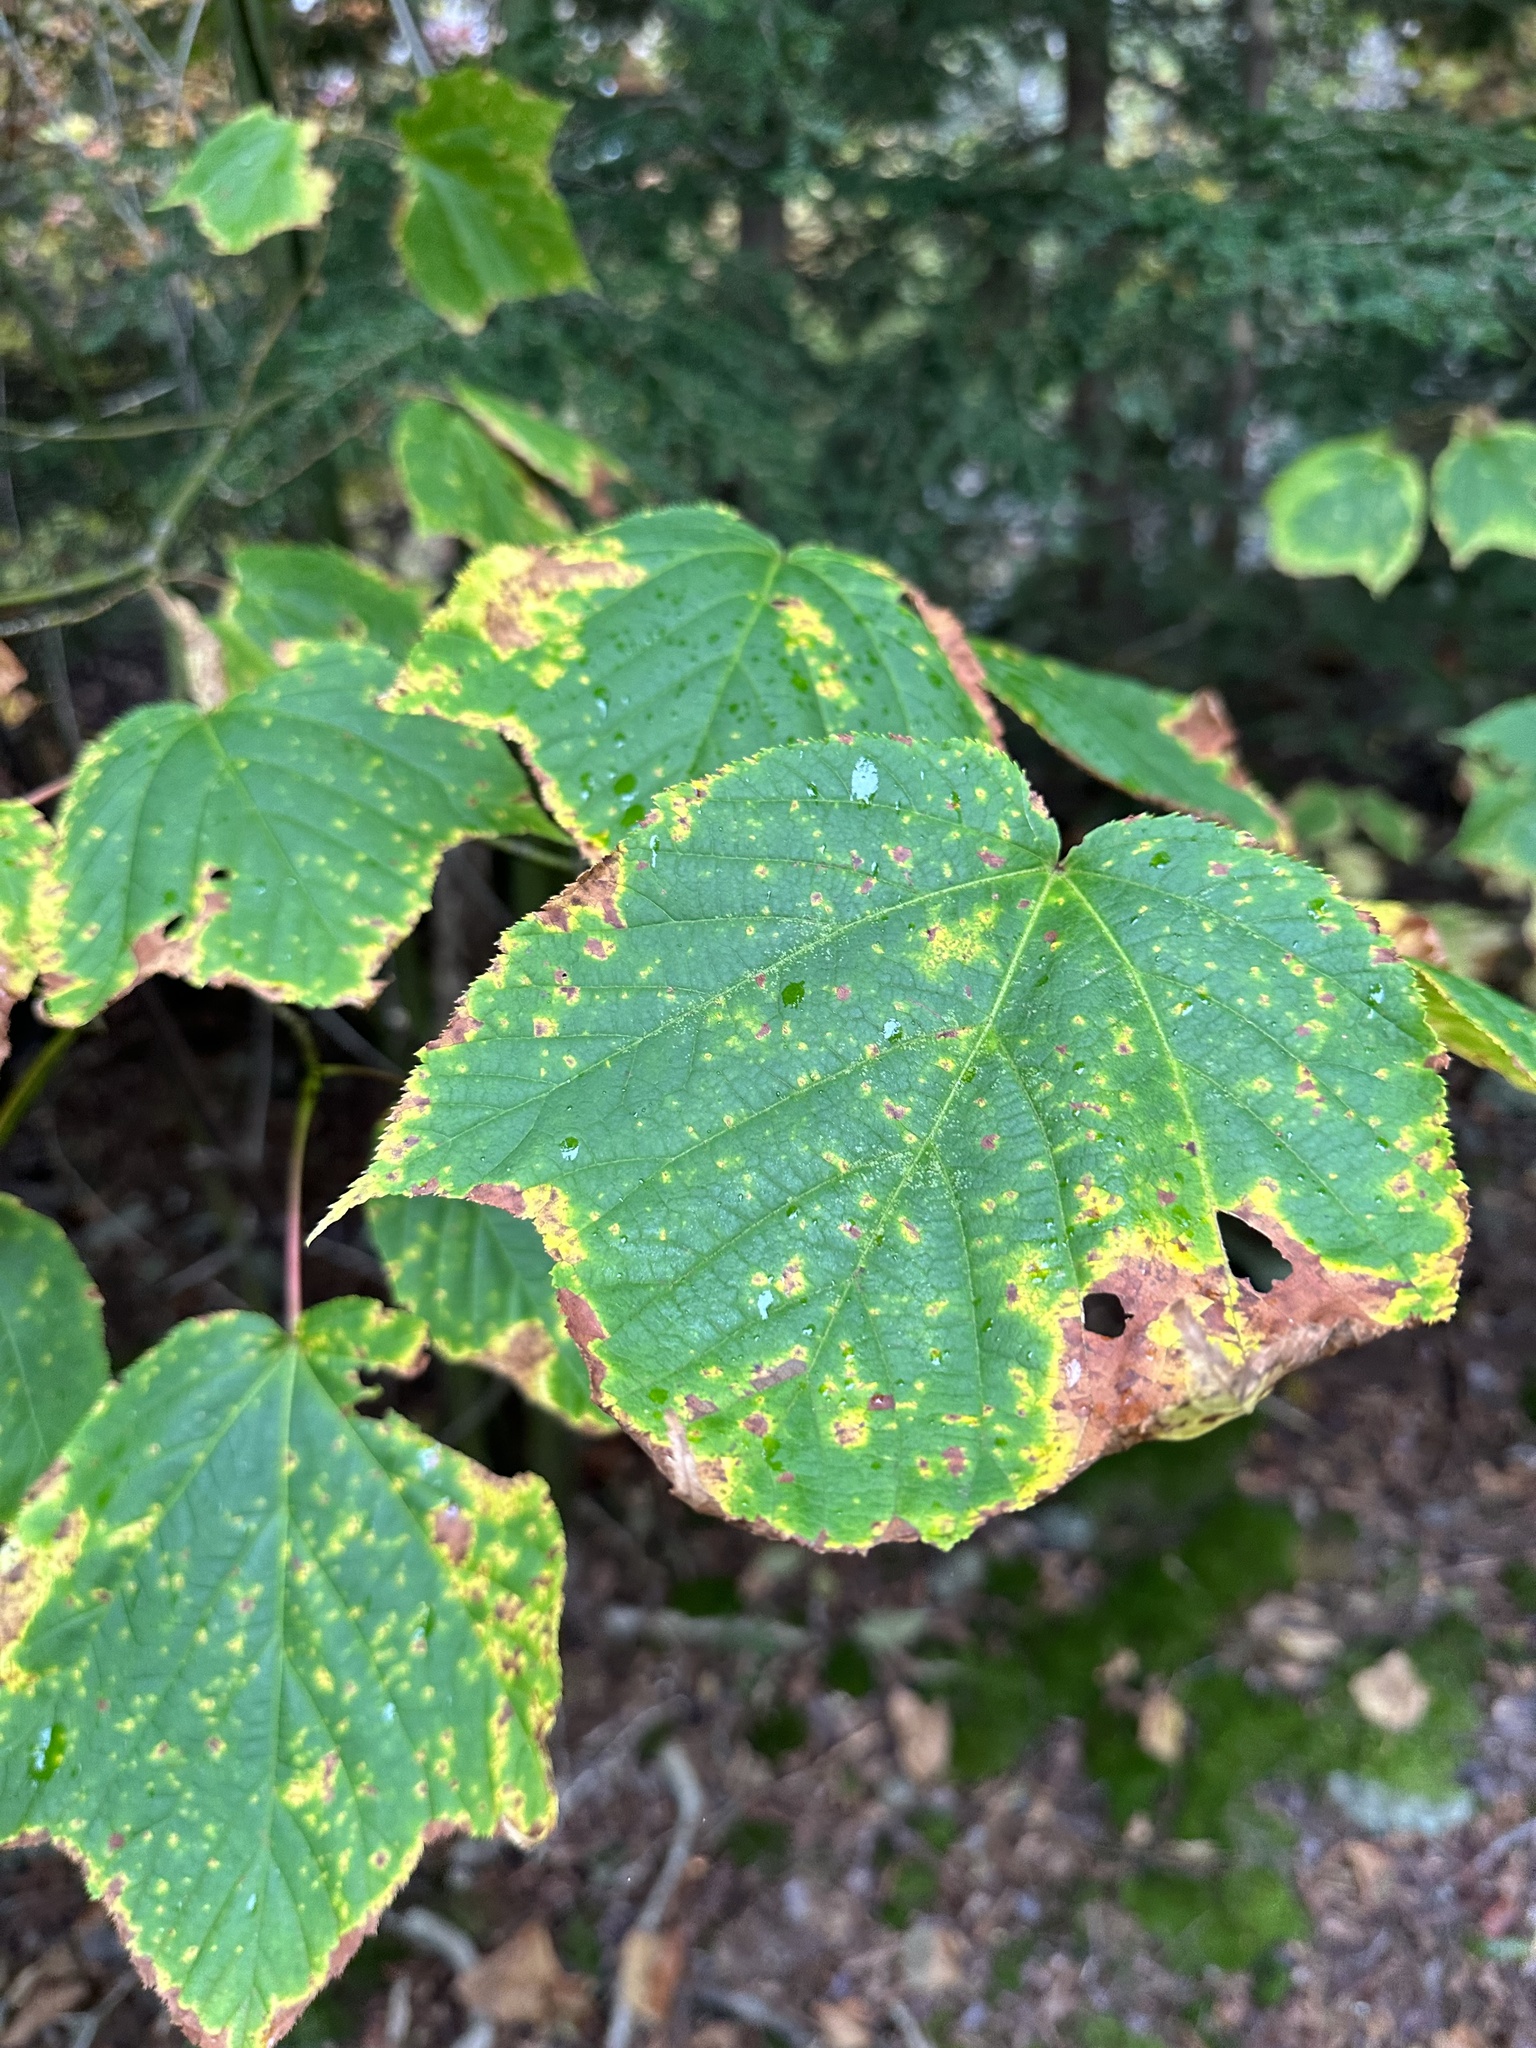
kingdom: Plantae
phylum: Tracheophyta
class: Magnoliopsida
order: Sapindales
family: Sapindaceae
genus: Acer
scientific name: Acer pensylvanicum
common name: Moosewood
